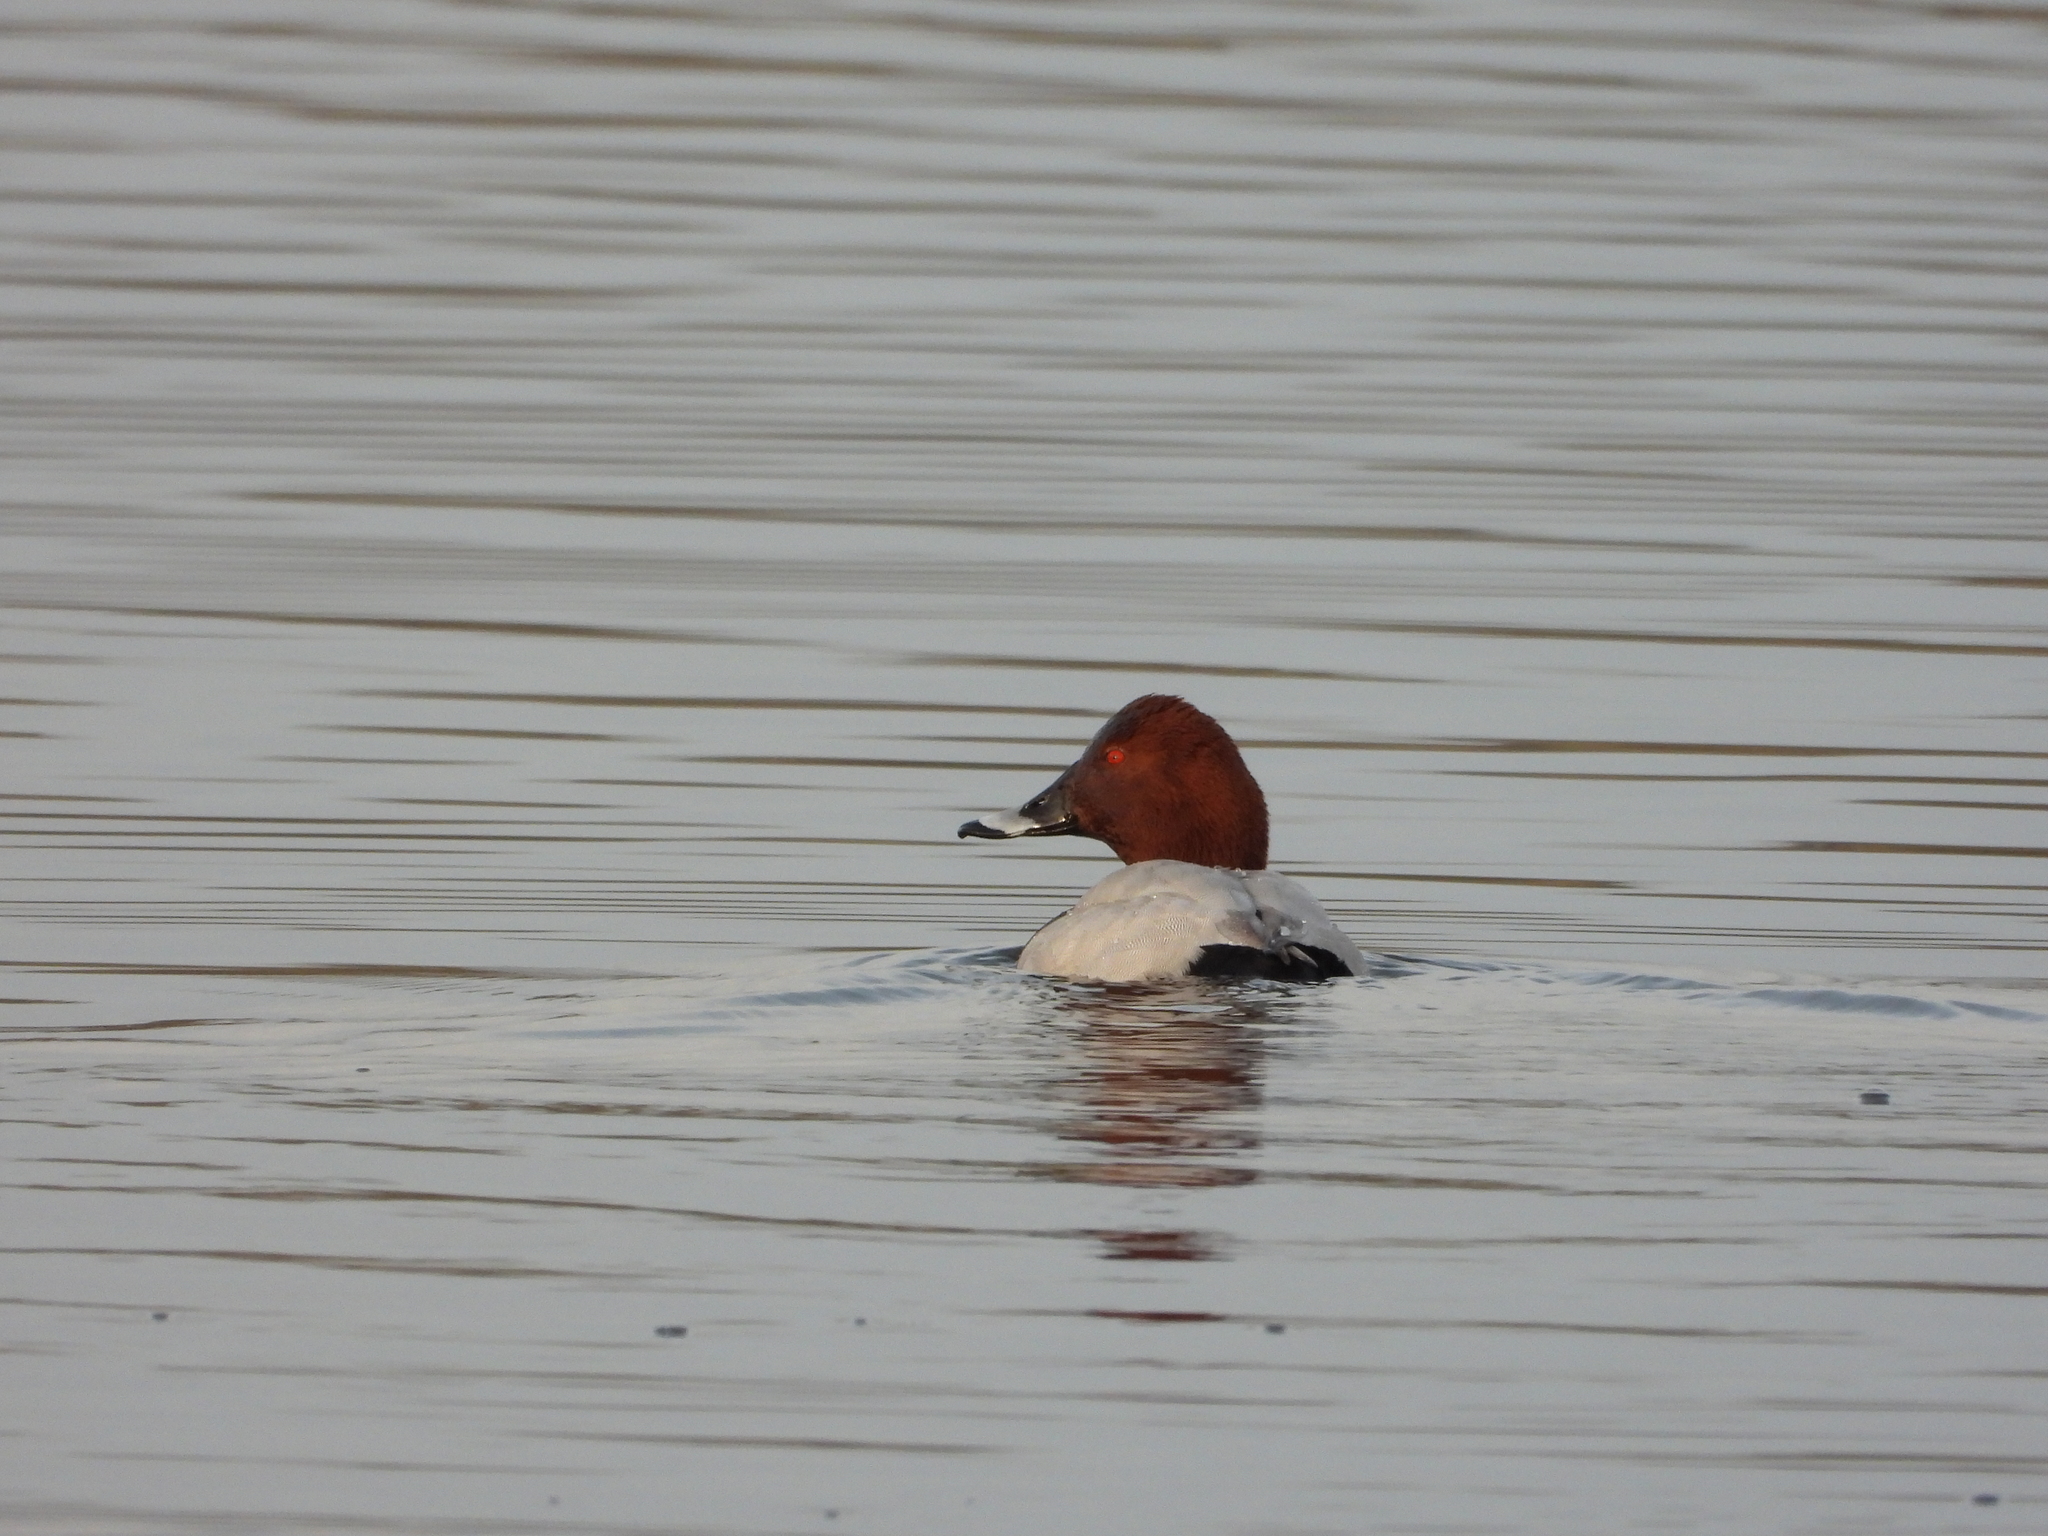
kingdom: Animalia
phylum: Chordata
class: Aves
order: Anseriformes
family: Anatidae
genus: Aythya
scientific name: Aythya ferina
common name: Common pochard
